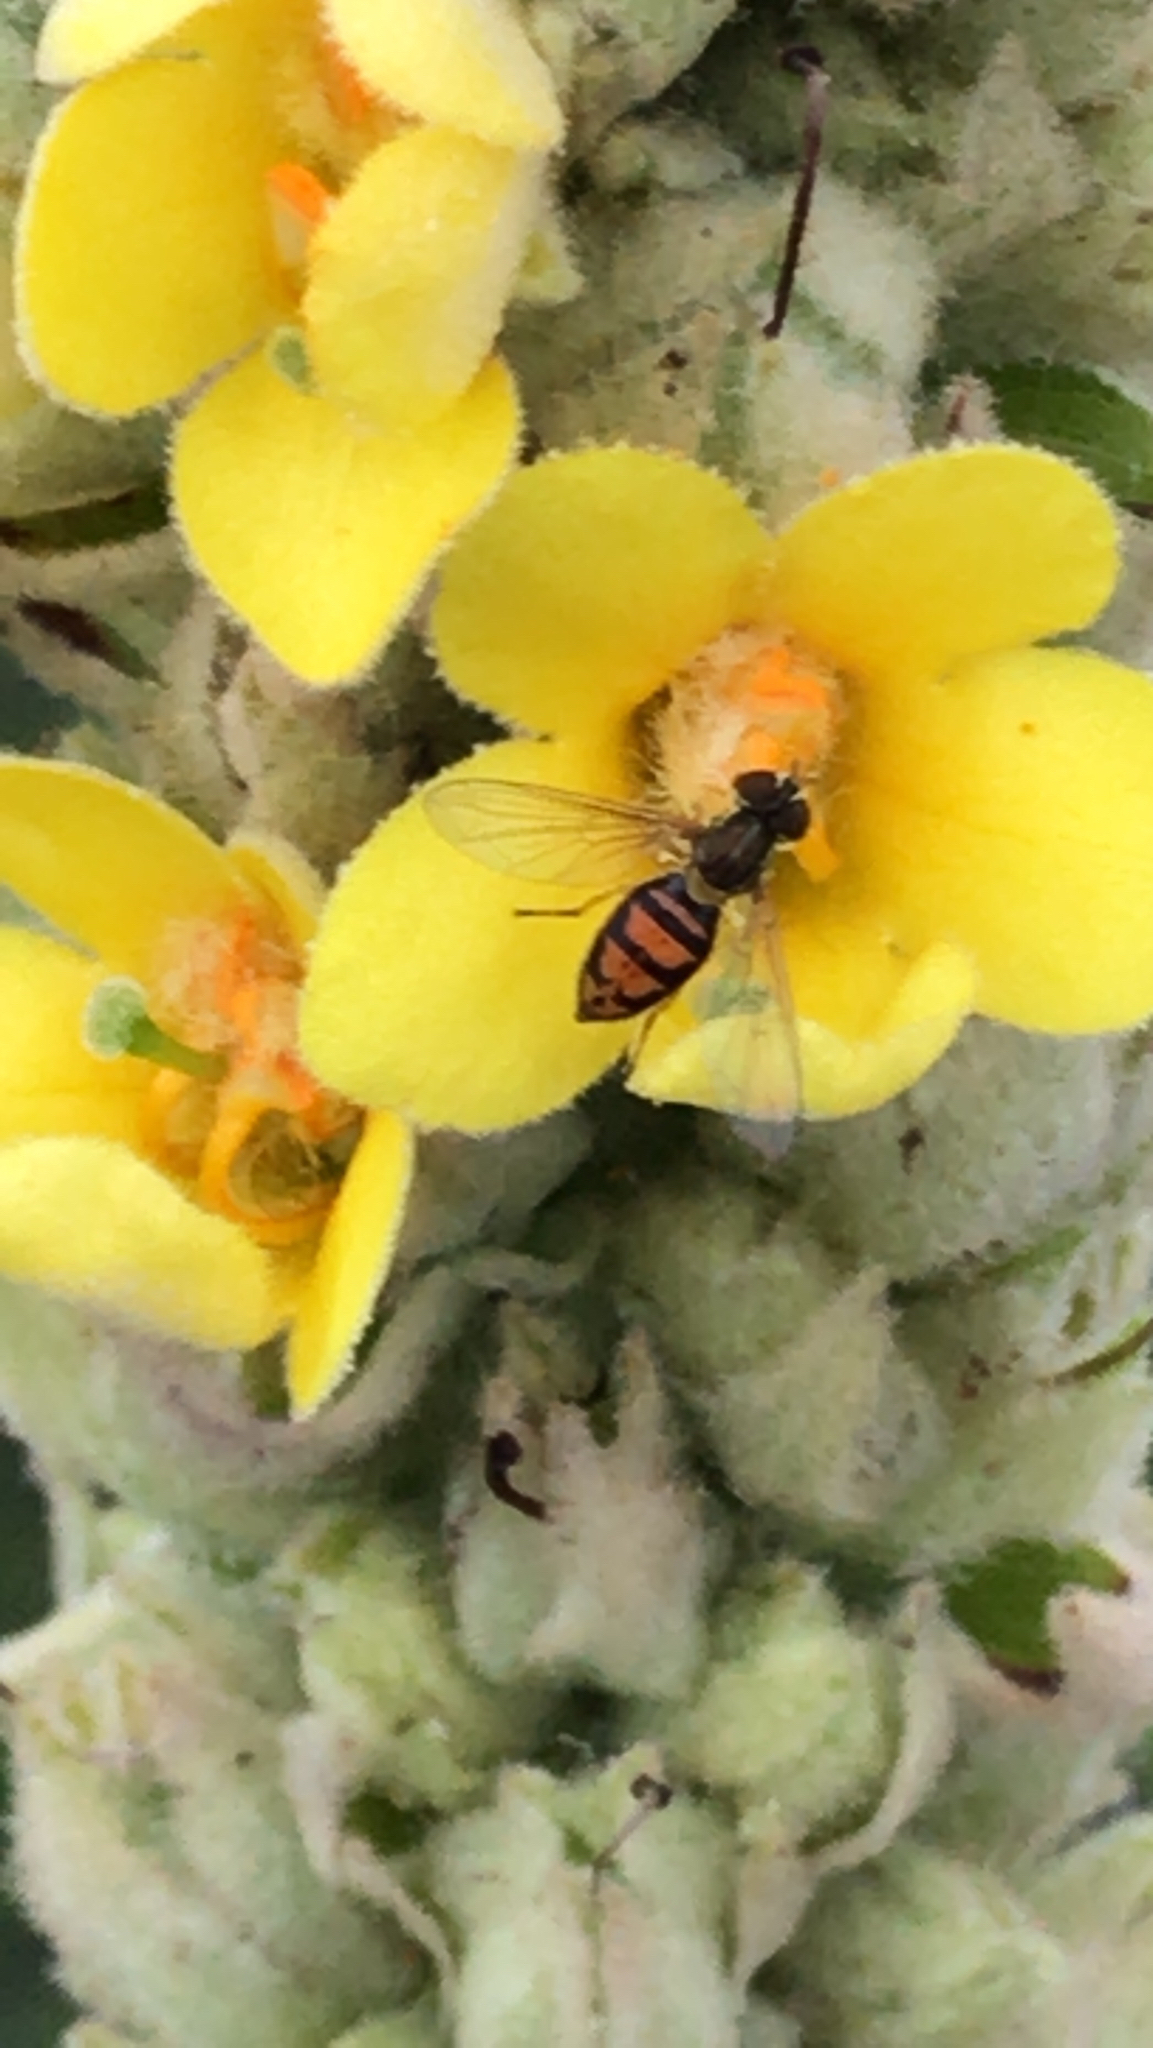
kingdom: Animalia
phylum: Arthropoda
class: Insecta
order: Diptera
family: Syrphidae
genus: Toxomerus
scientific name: Toxomerus marginatus
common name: Syrphid fly
